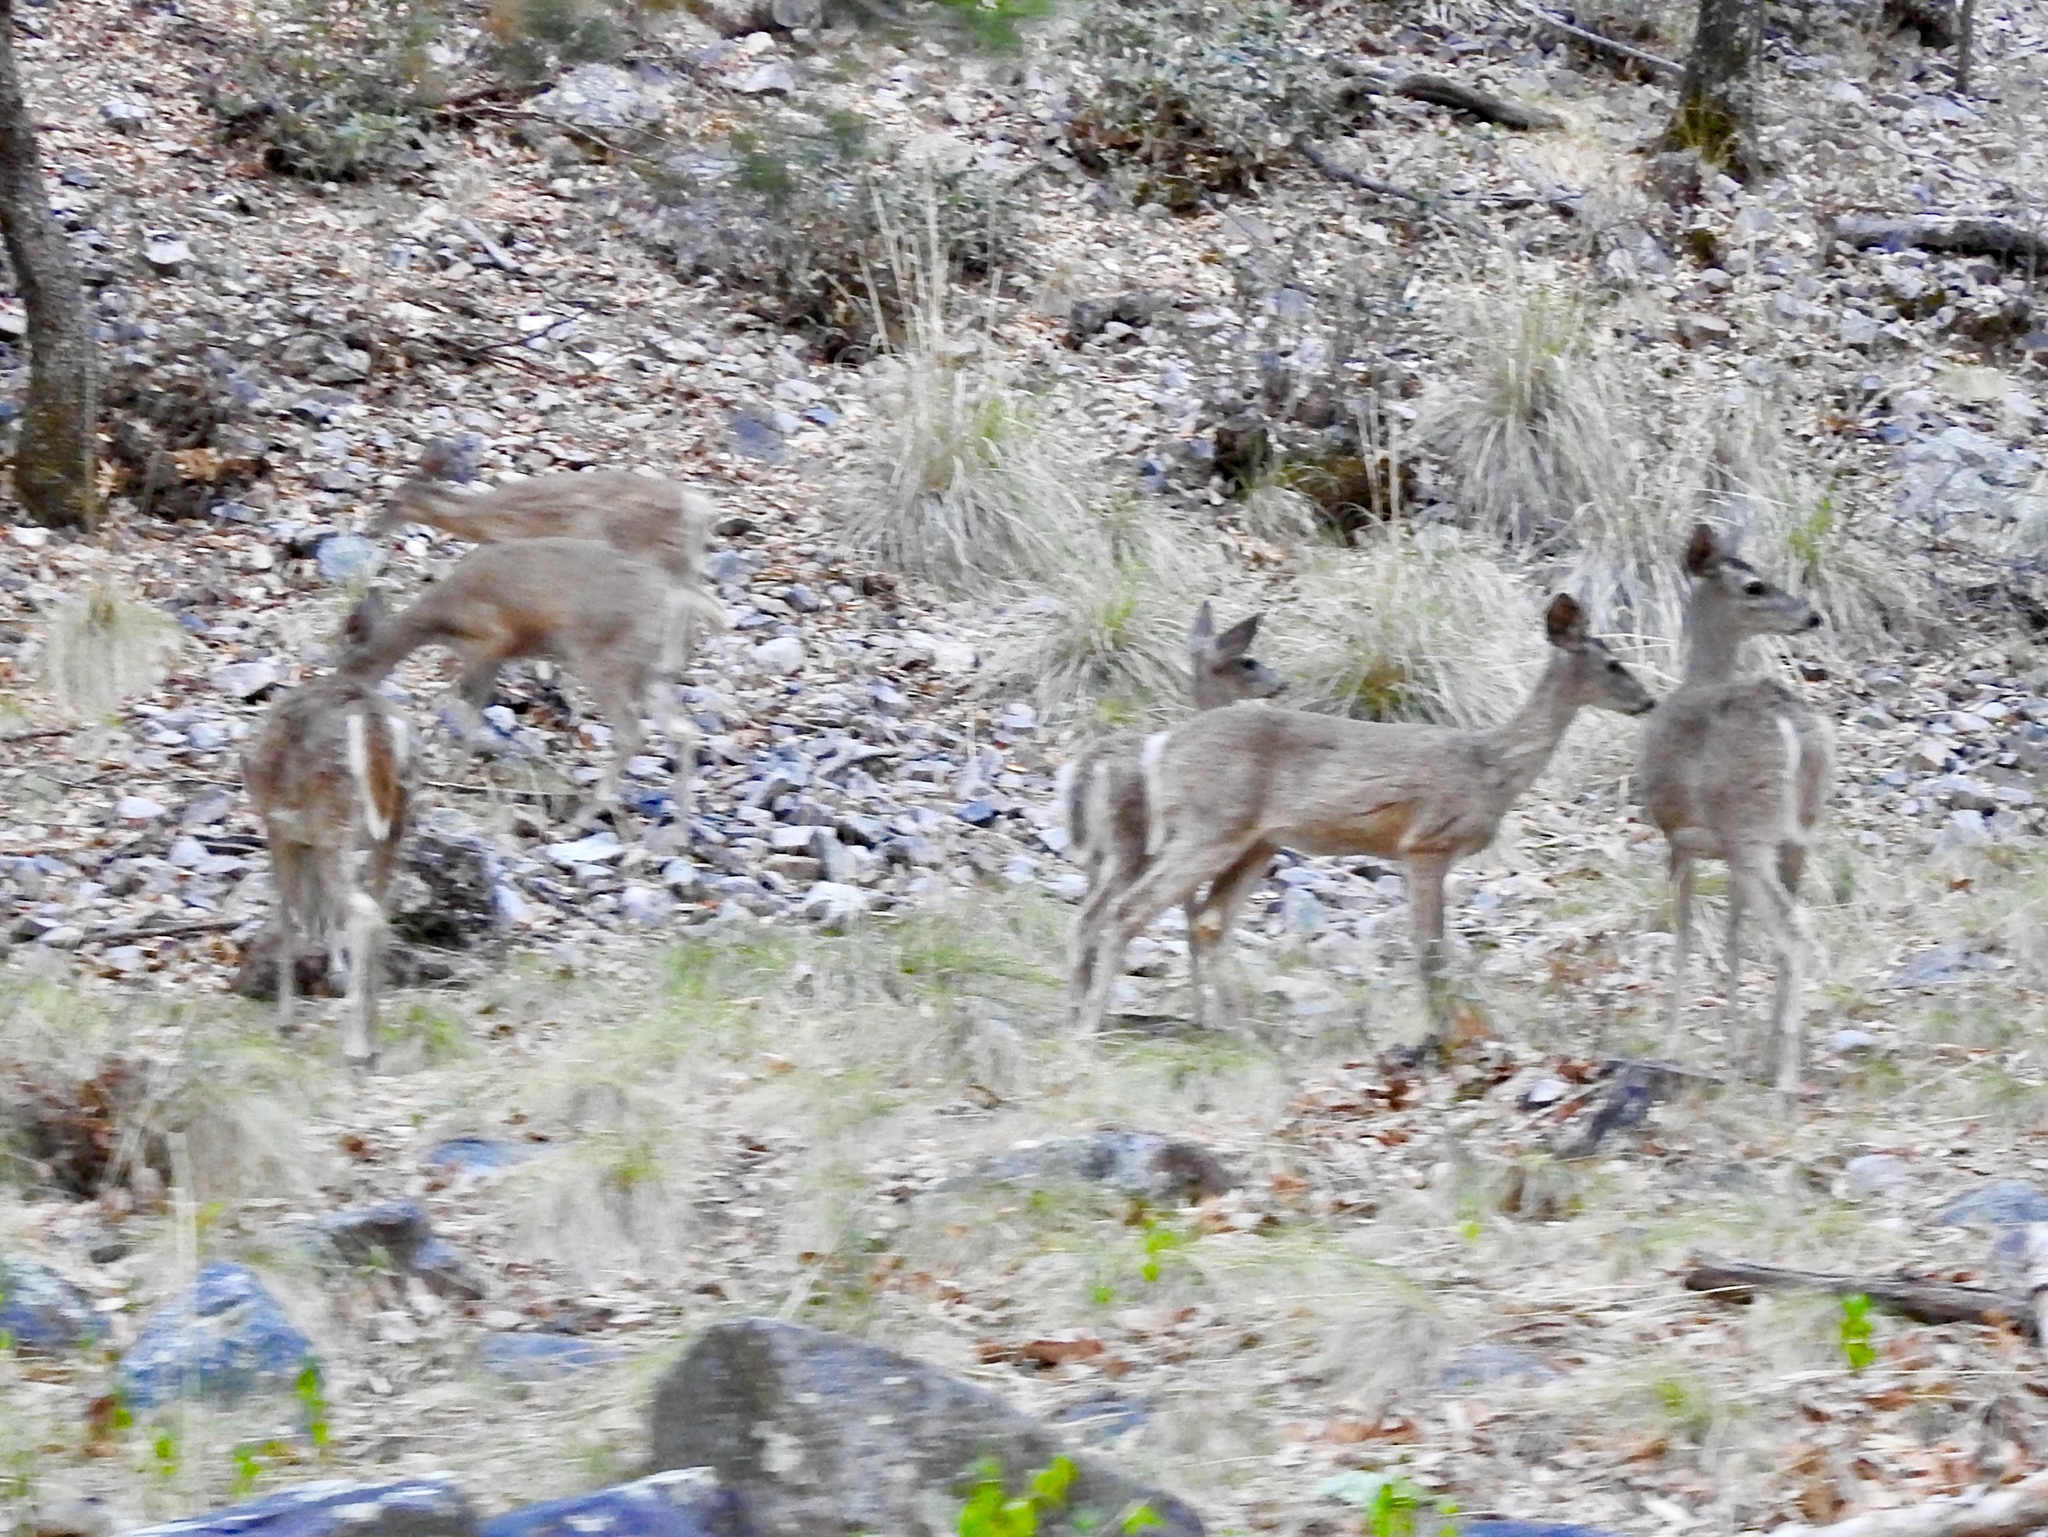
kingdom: Animalia
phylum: Chordata
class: Mammalia
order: Artiodactyla
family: Cervidae
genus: Odocoileus
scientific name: Odocoileus virginianus
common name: White-tailed deer
